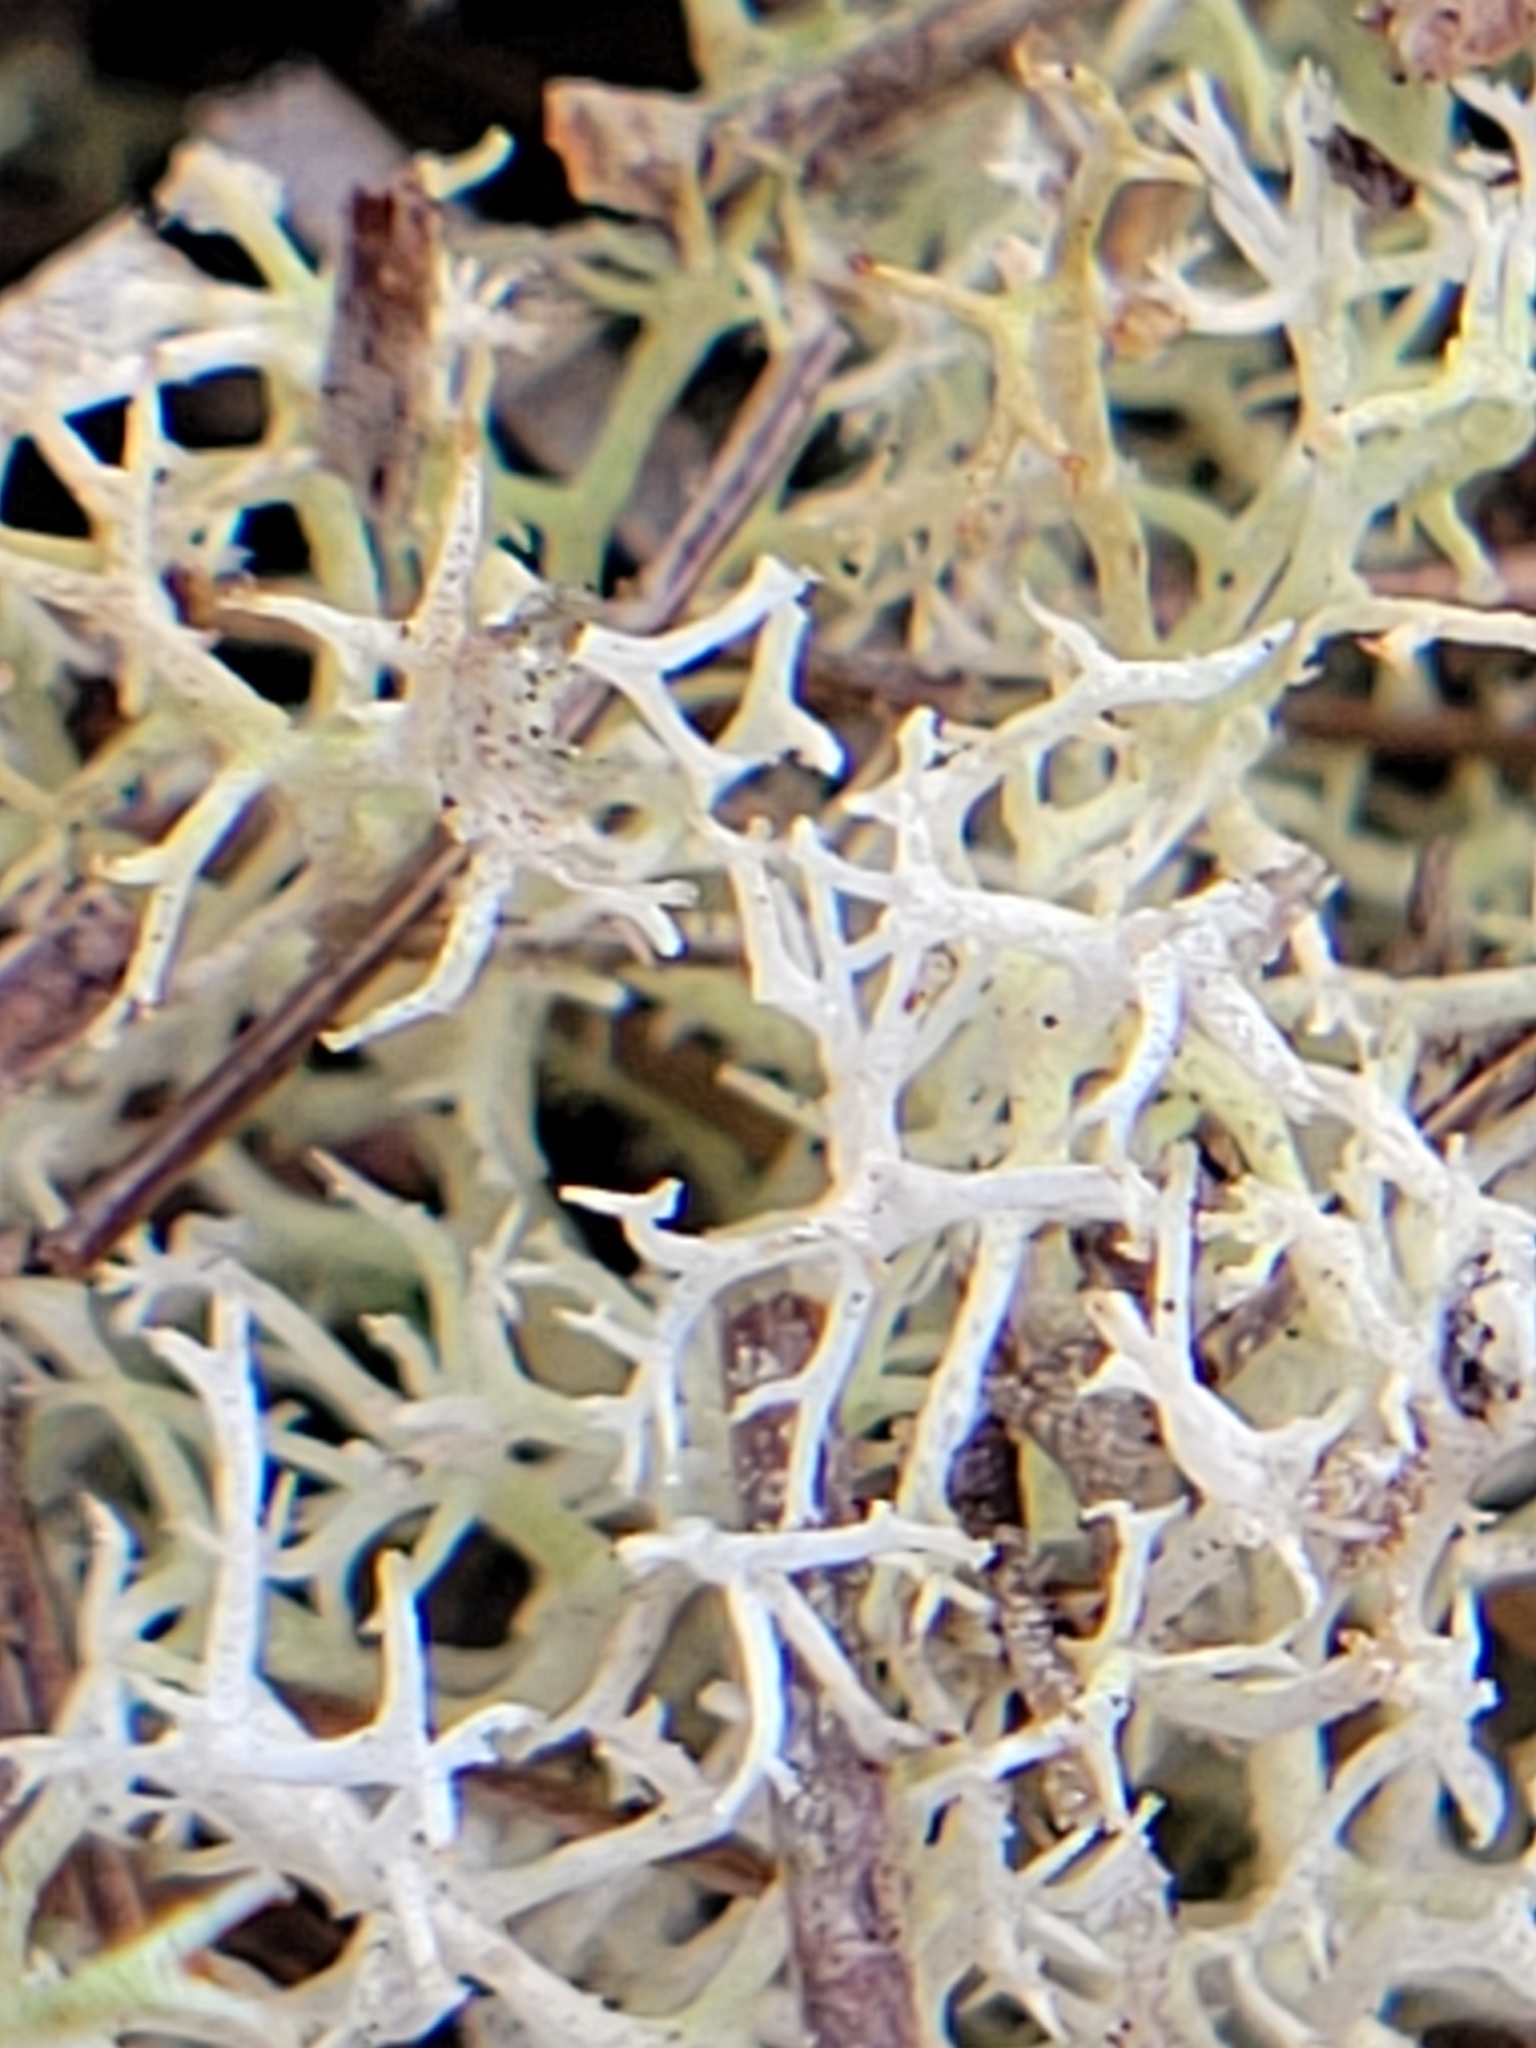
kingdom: Fungi
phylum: Ascomycota
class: Lecanoromycetes
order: Lecanorales
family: Cladoniaceae
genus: Cladonia
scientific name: Cladonia subtenuis
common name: Dixie reindeer lichen
